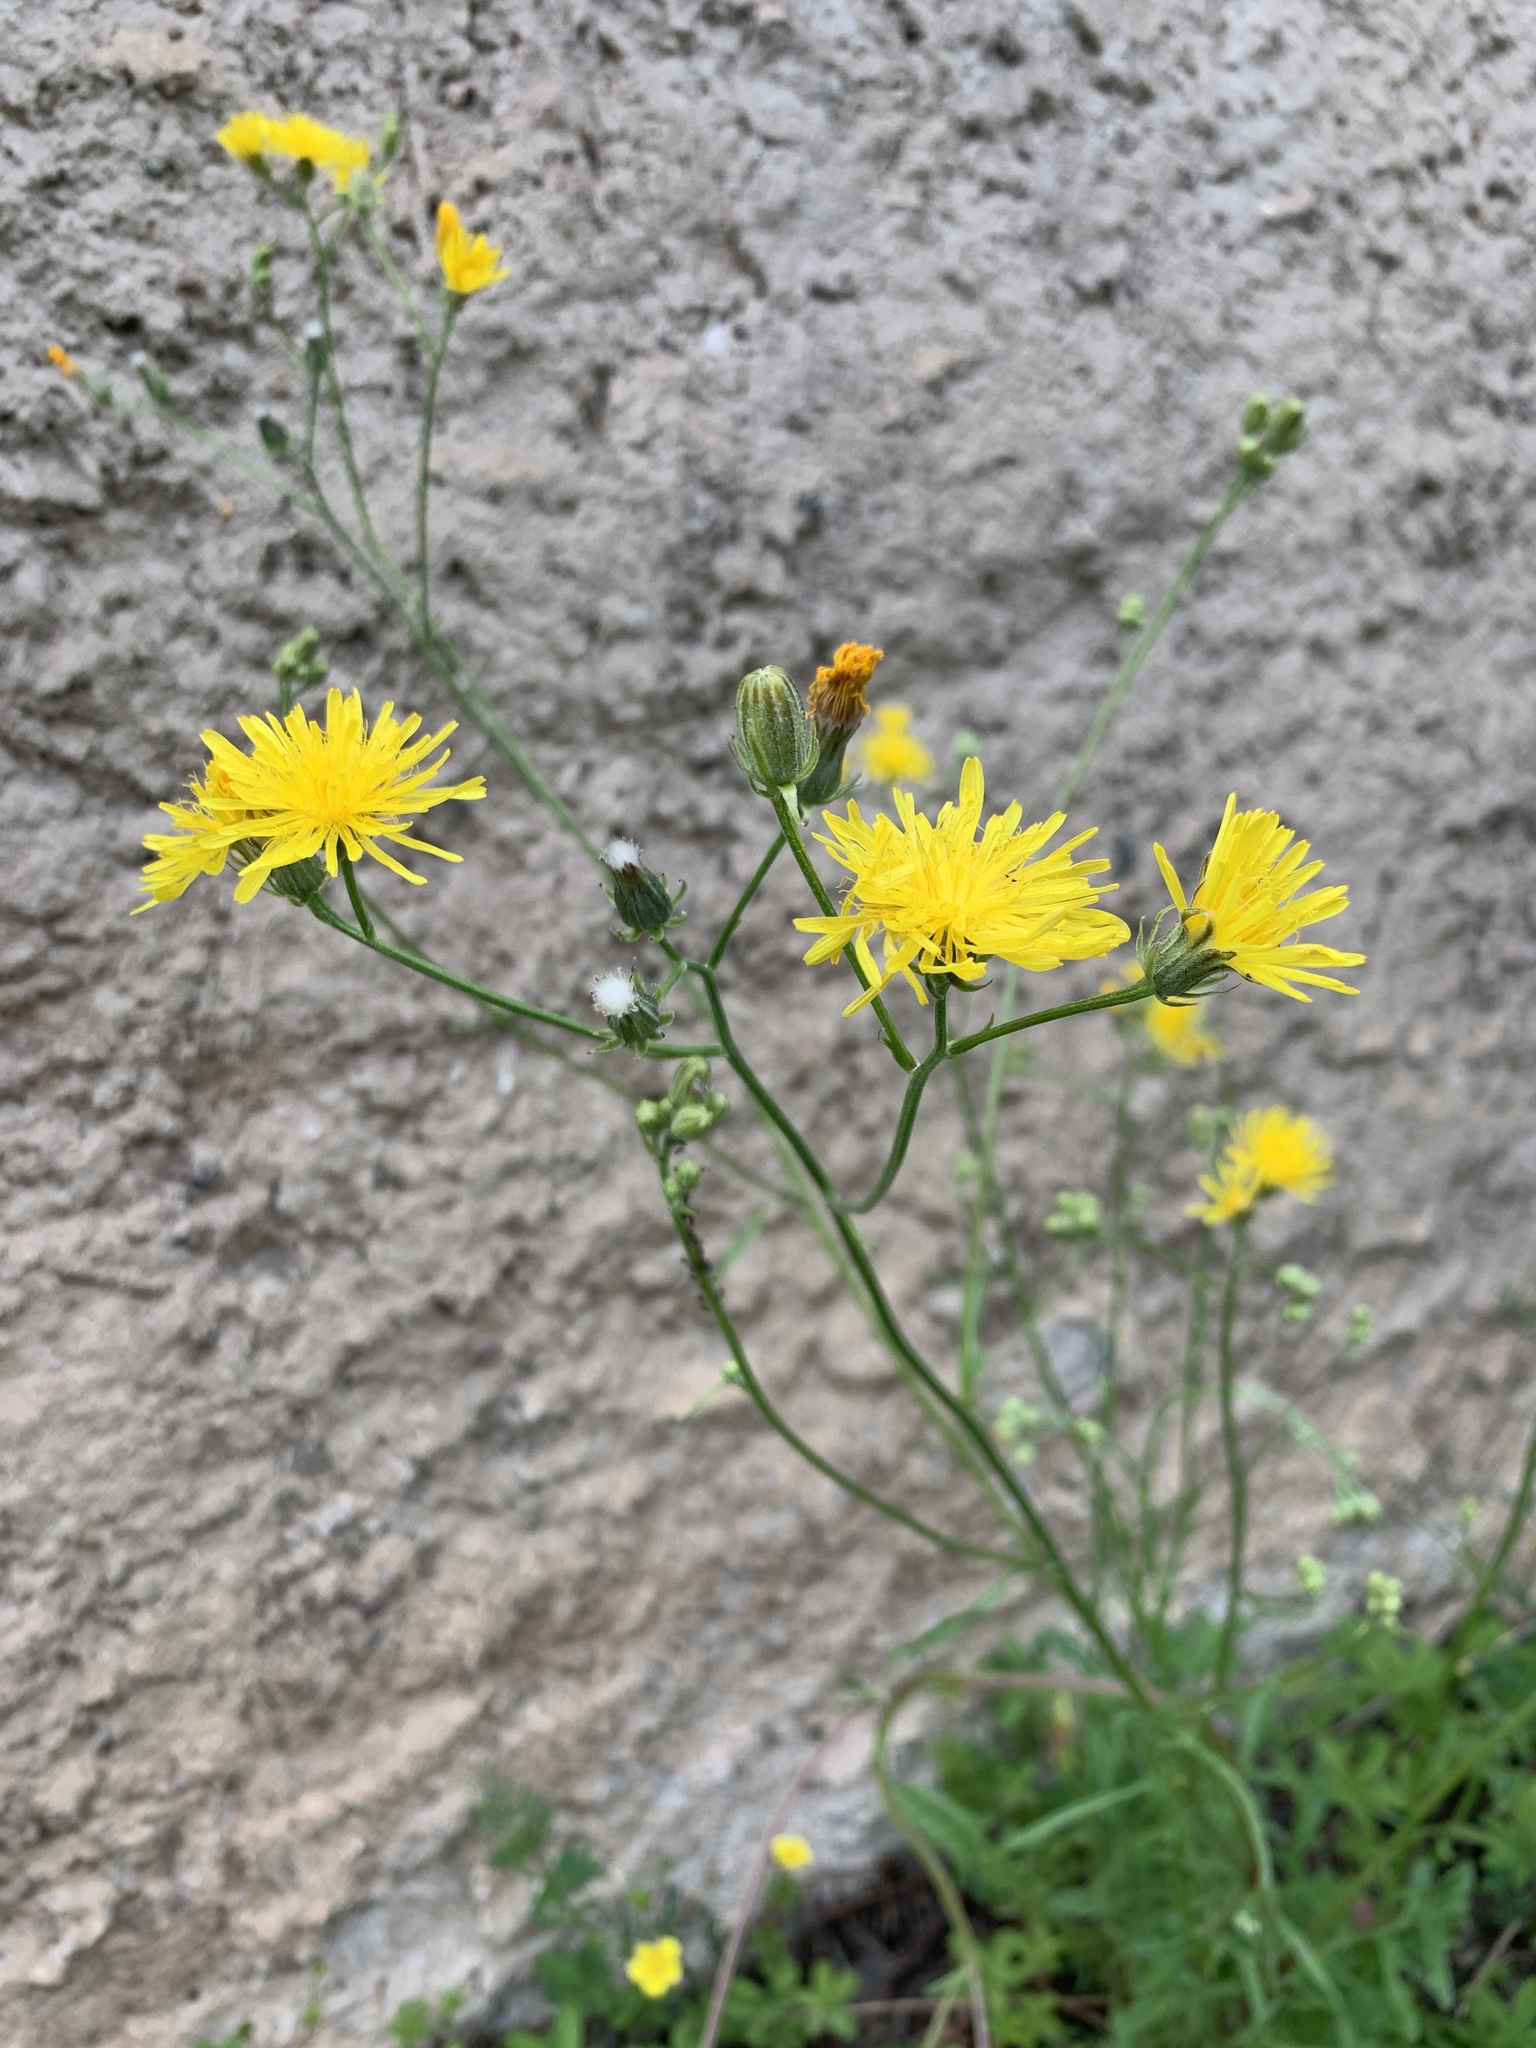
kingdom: Plantae
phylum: Tracheophyta
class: Magnoliopsida
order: Asterales
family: Asteraceae
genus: Crepis
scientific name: Crepis biennis
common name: Rough hawk's-beard
